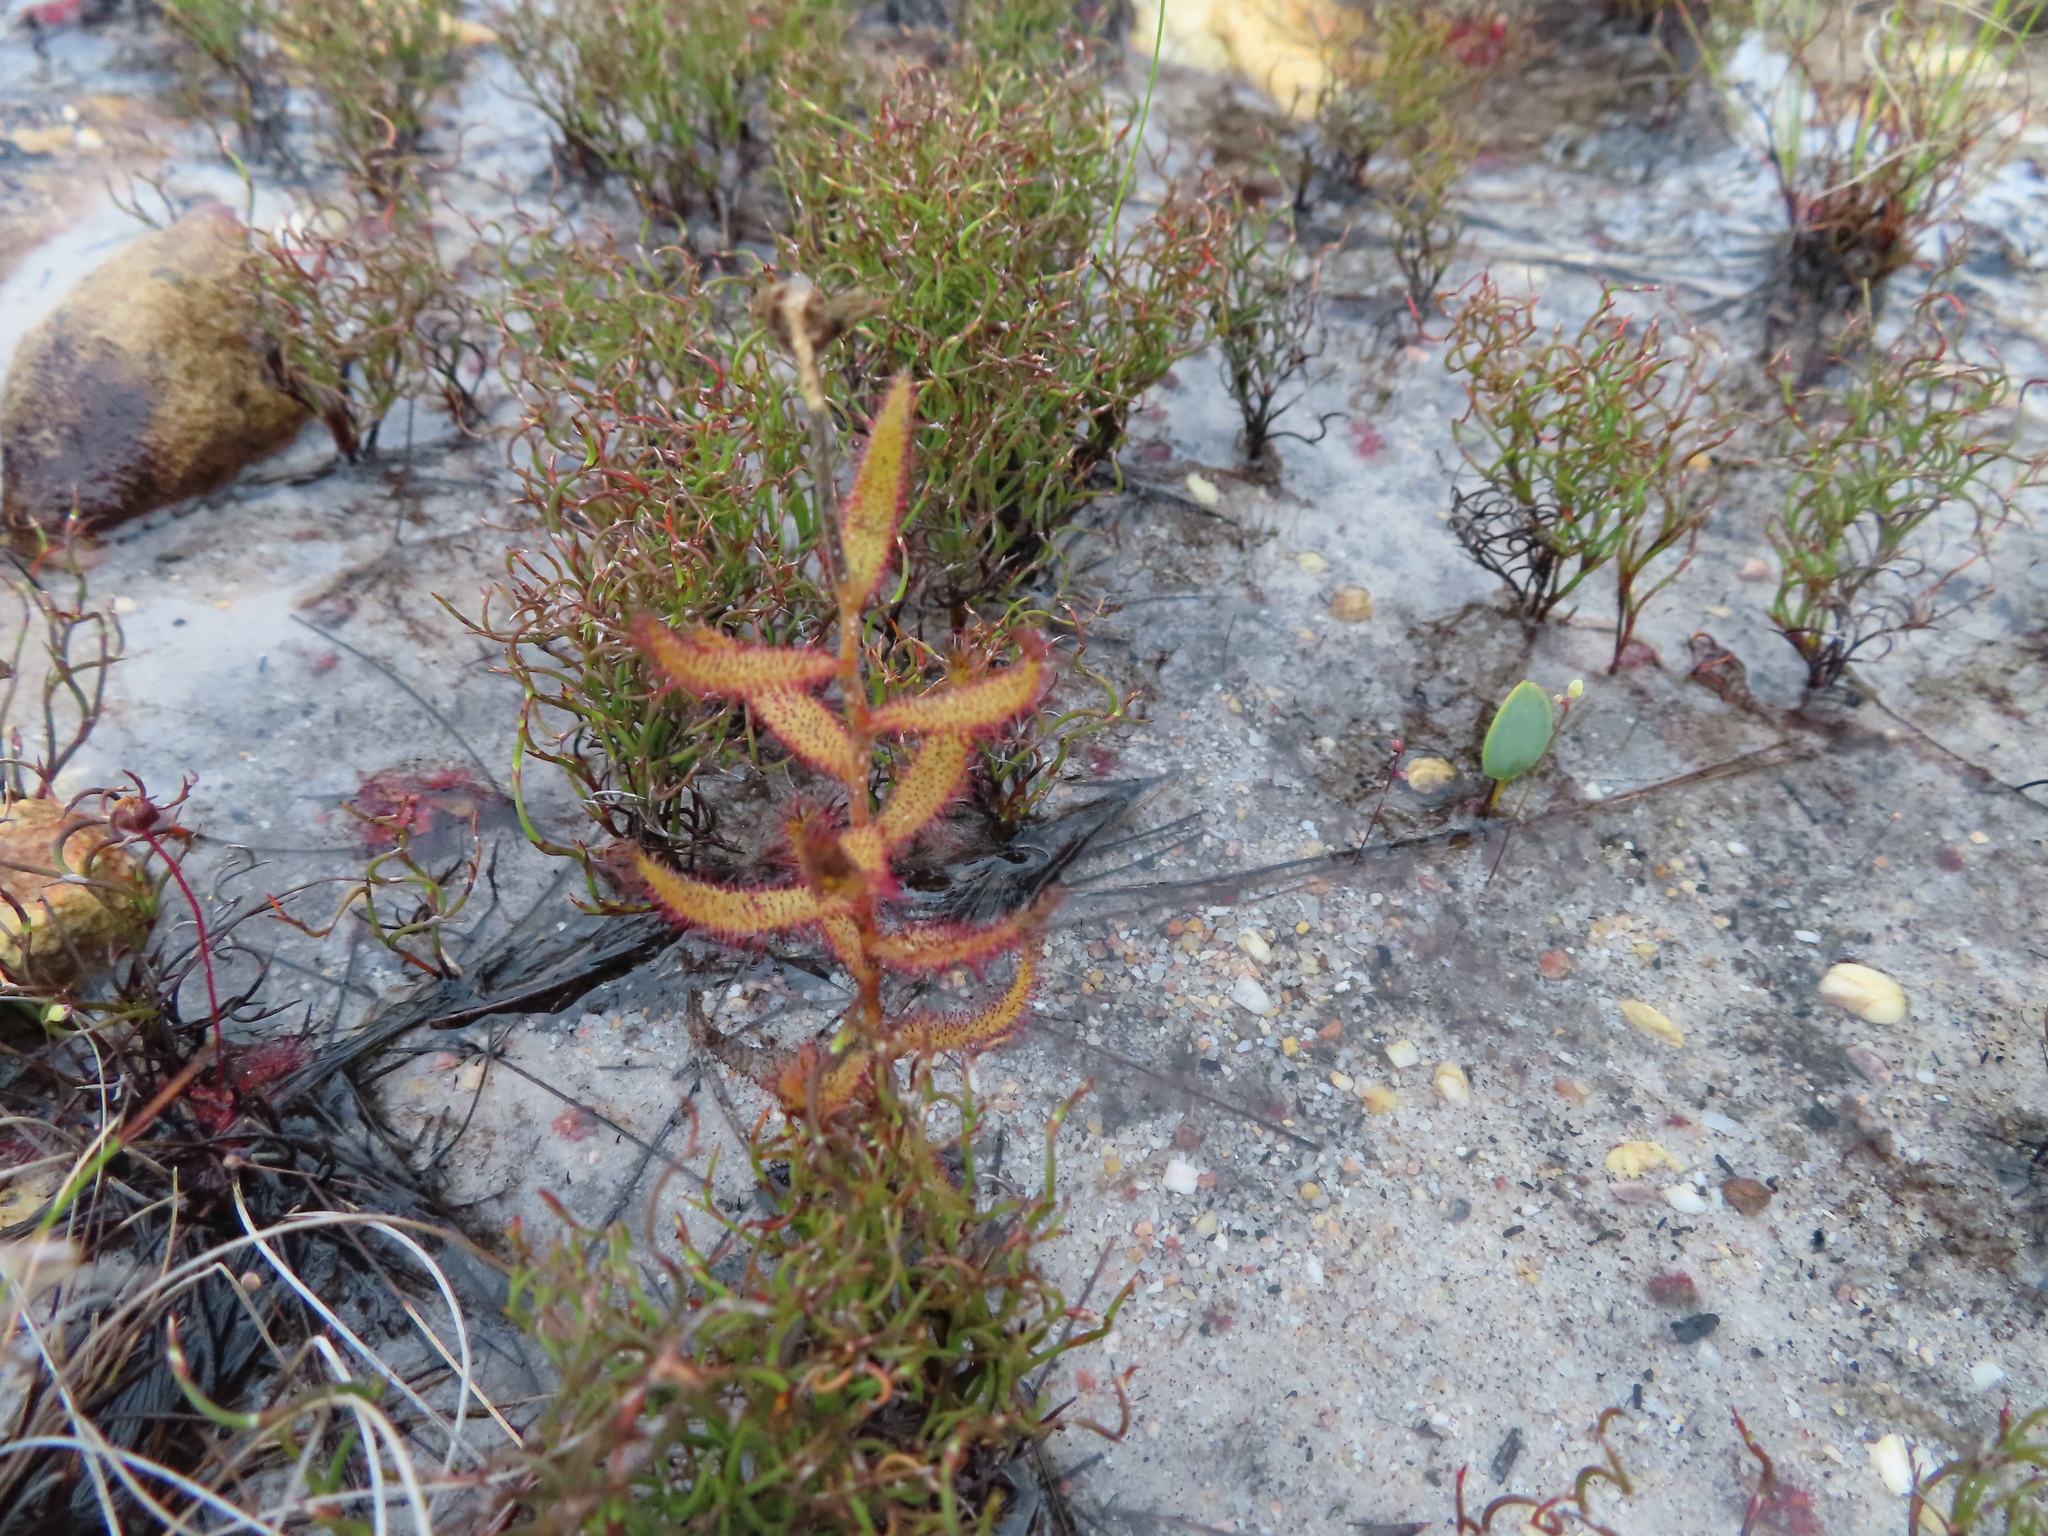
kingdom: Plantae
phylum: Tracheophyta
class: Magnoliopsida
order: Caryophyllales
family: Droseraceae
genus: Drosera
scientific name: Drosera cistiflora
